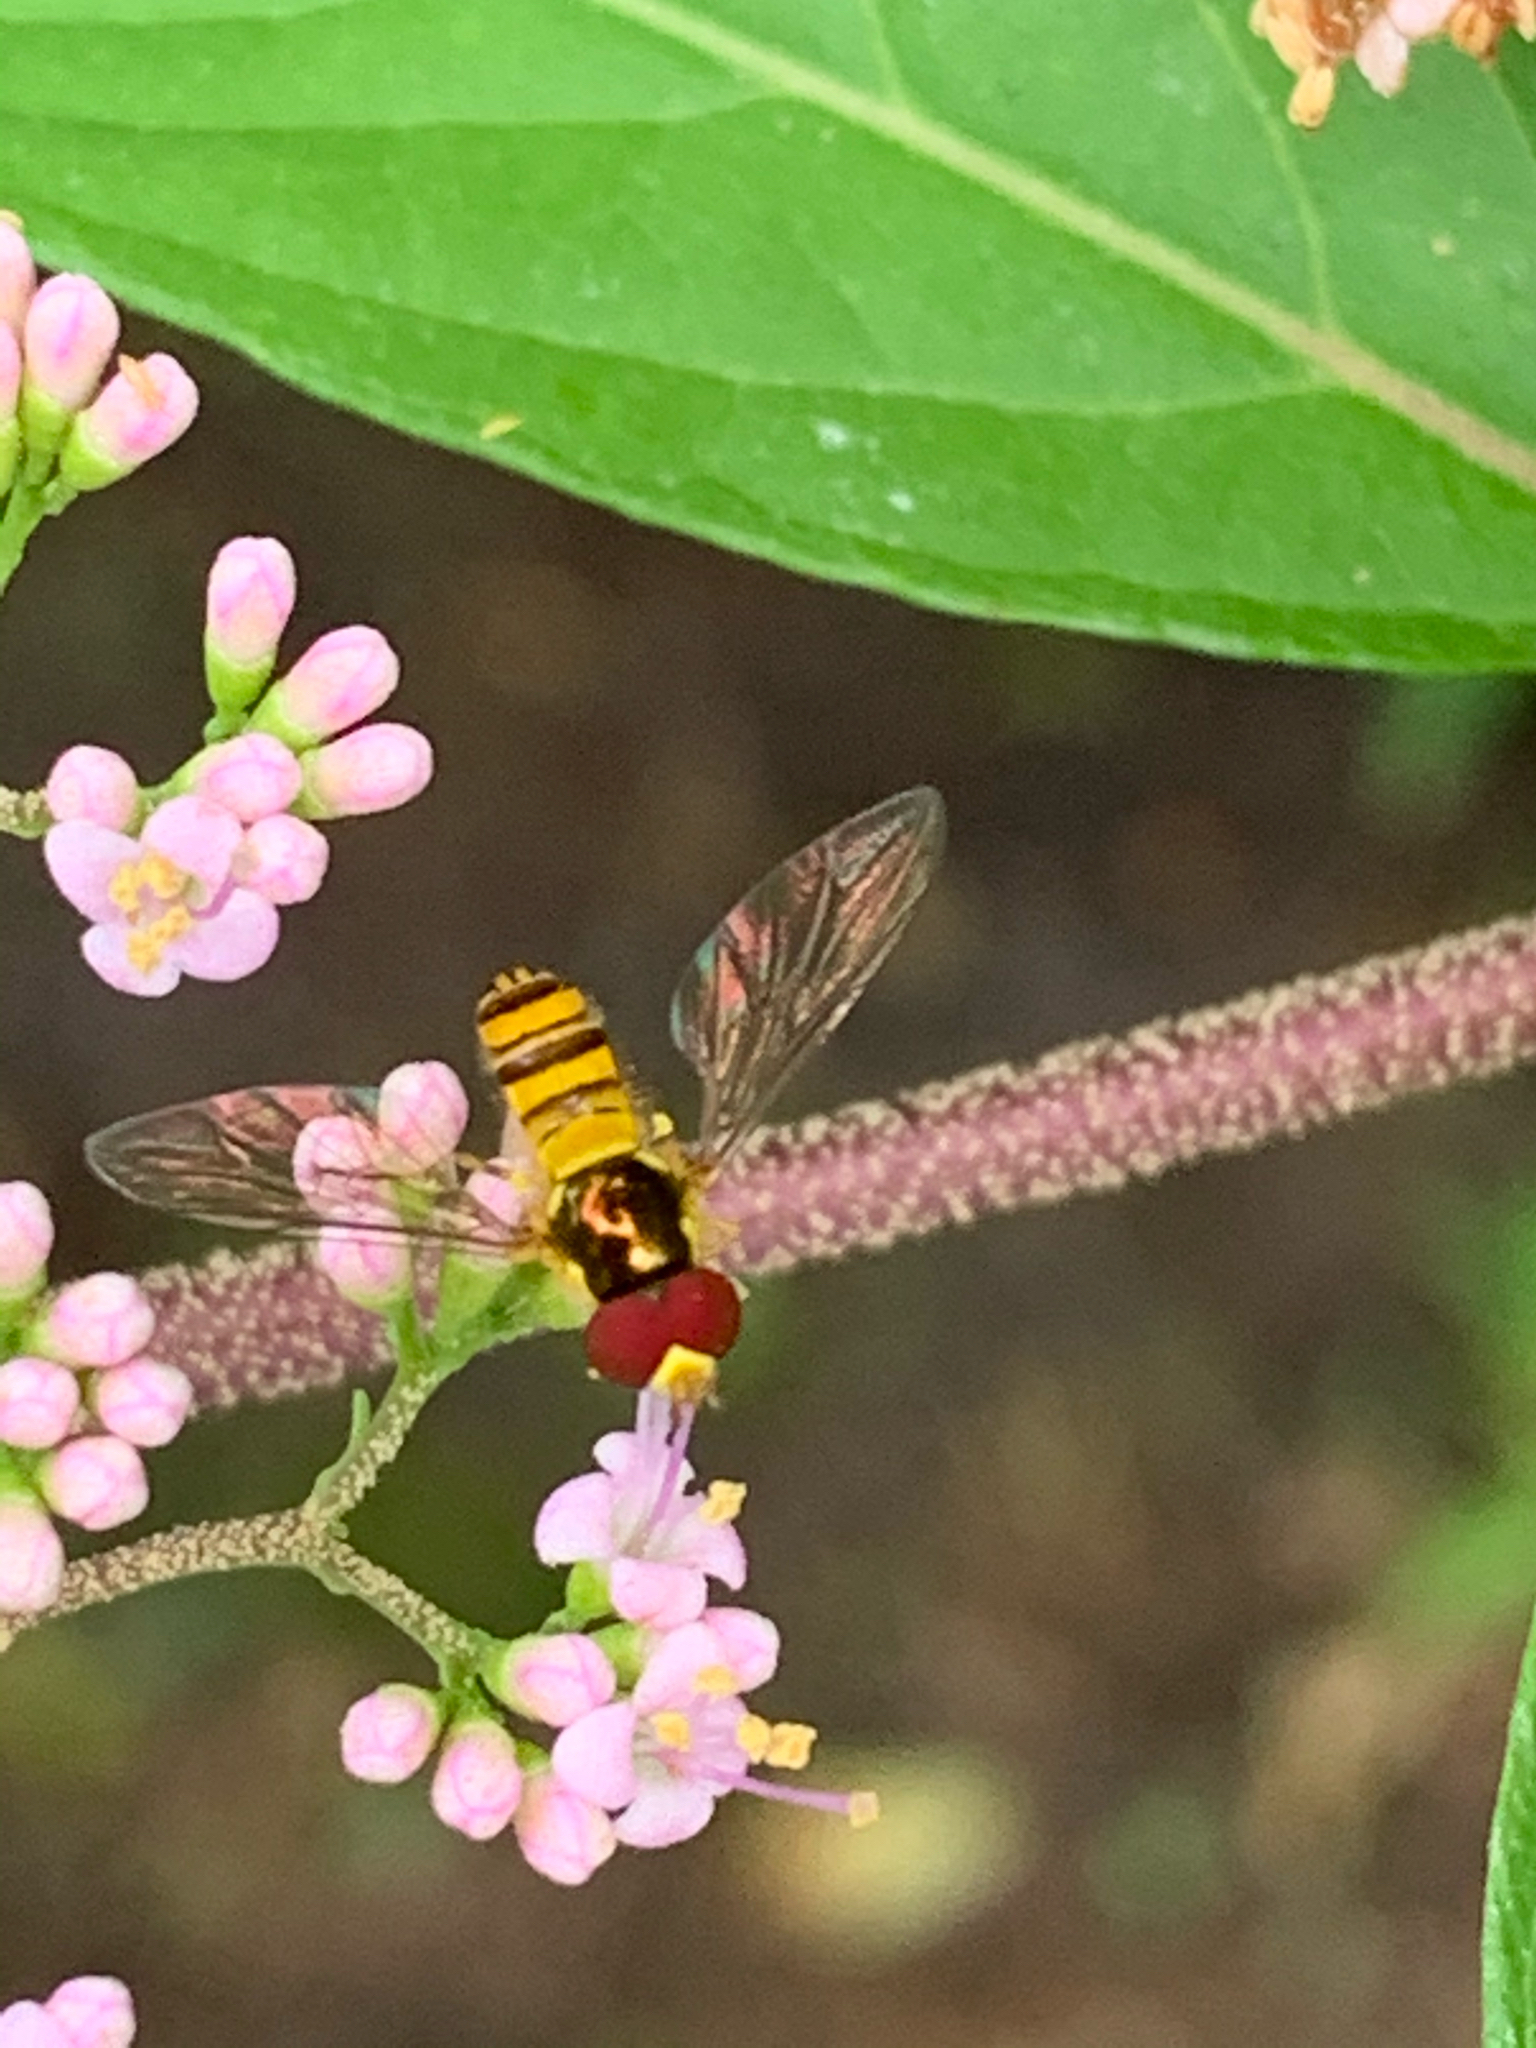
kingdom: Animalia
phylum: Arthropoda
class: Insecta
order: Diptera
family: Syrphidae
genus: Allograpta
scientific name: Allograpta obliqua
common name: Common oblique syrphid
